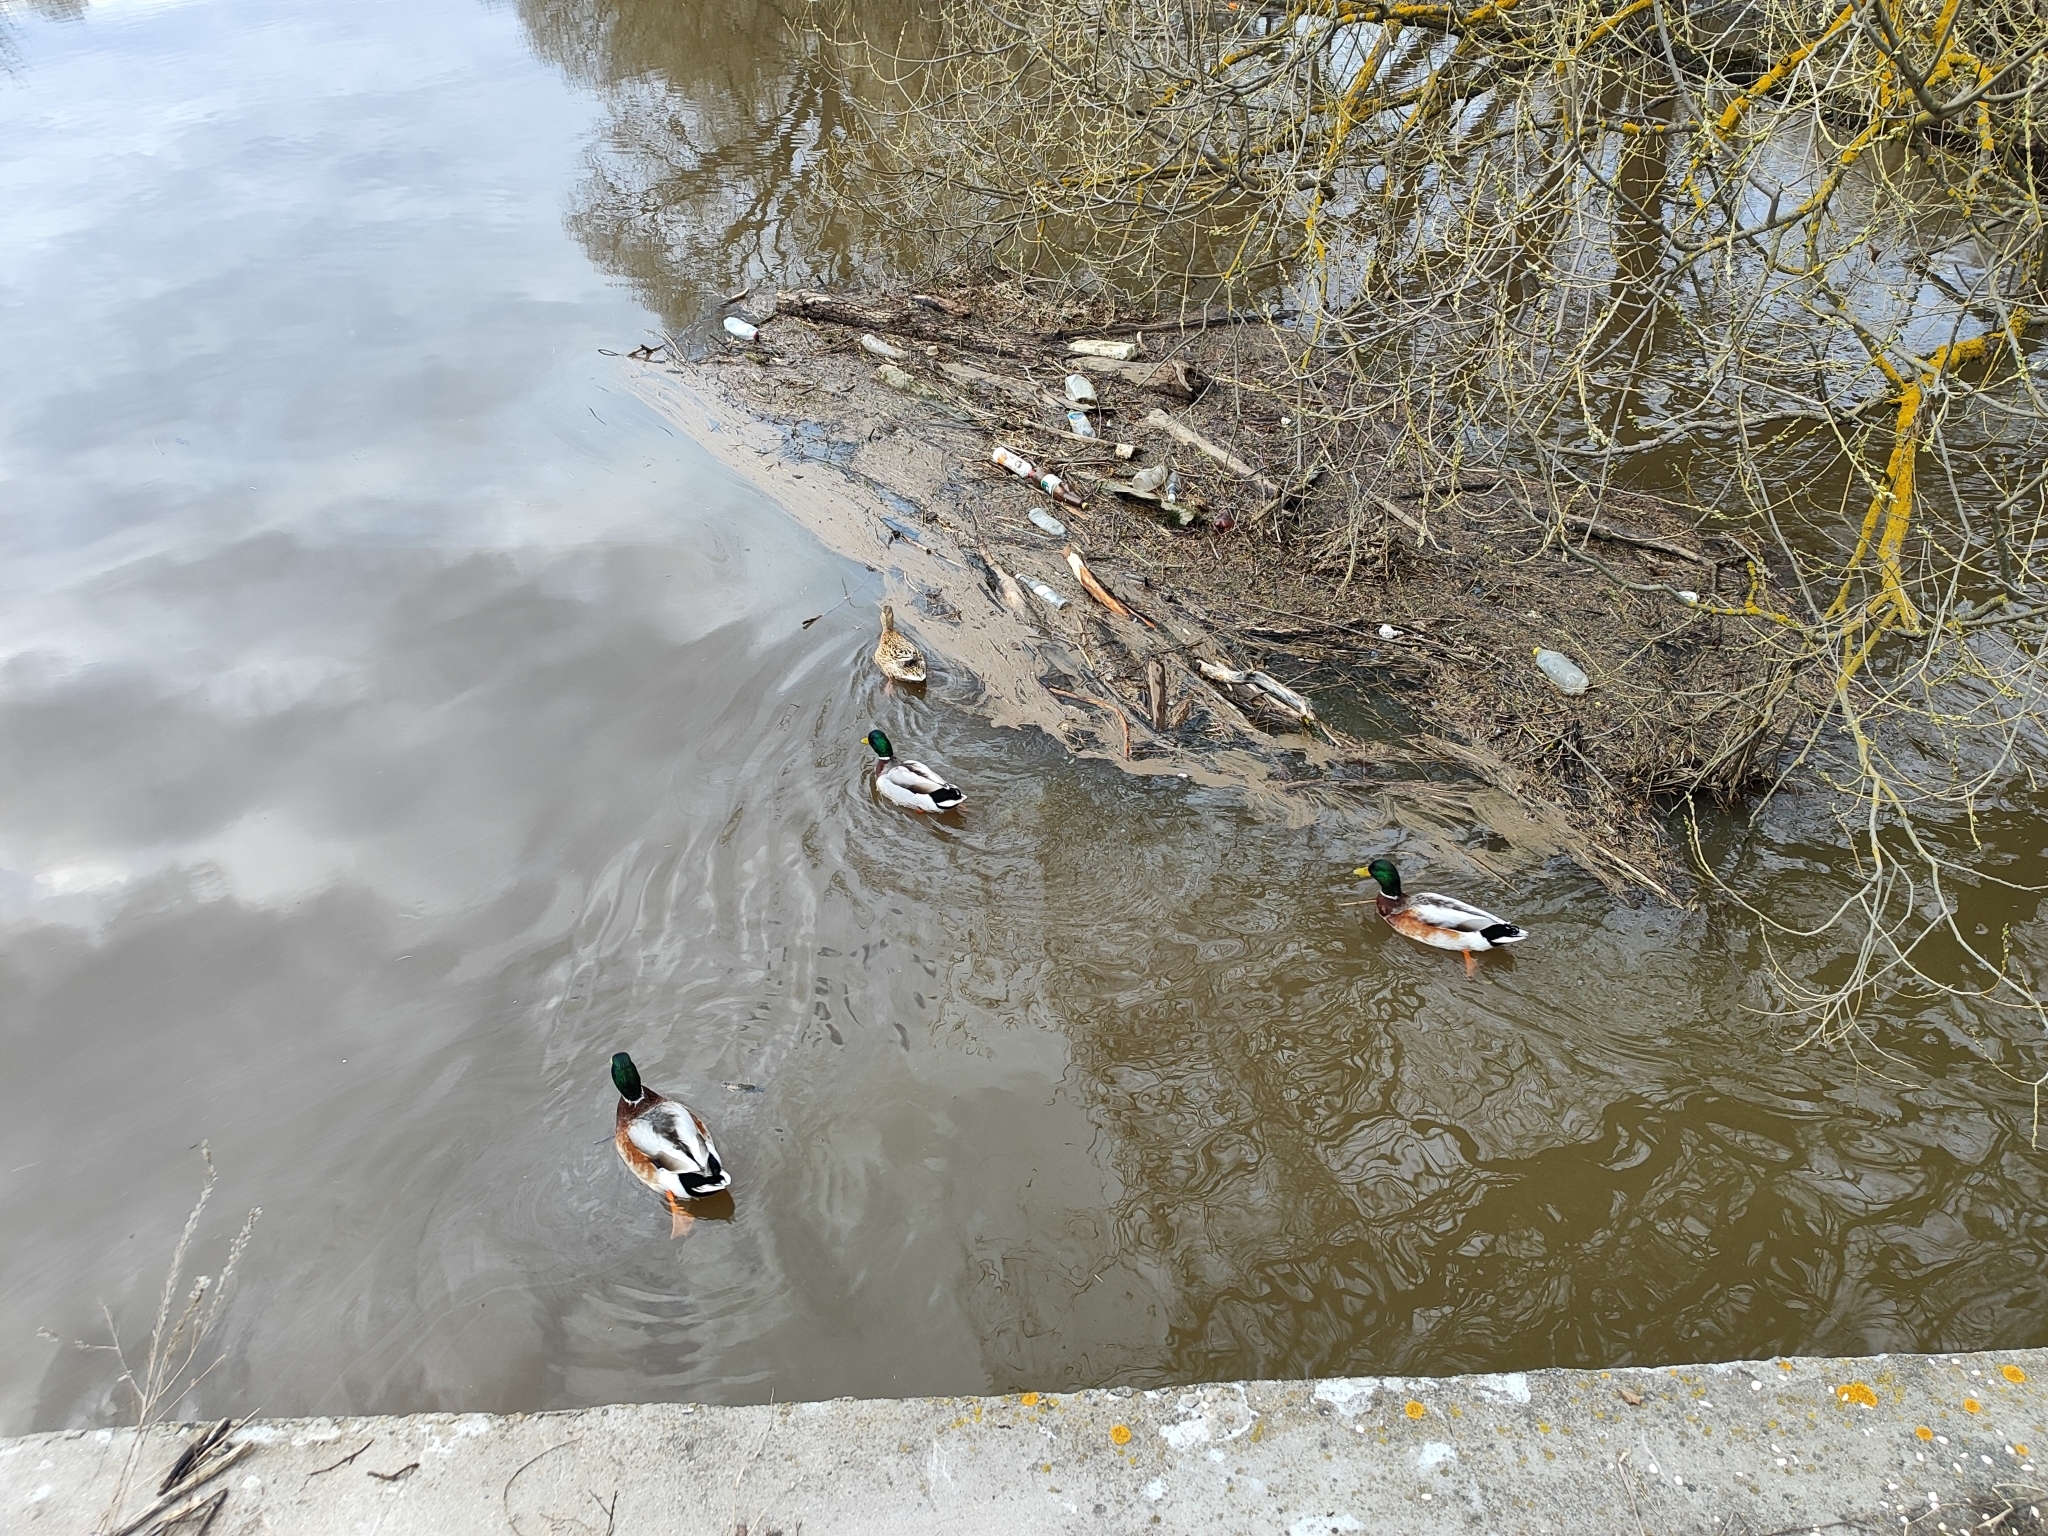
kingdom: Animalia
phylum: Chordata
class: Aves
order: Anseriformes
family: Anatidae
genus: Anas
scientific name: Anas platyrhynchos
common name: Mallard
